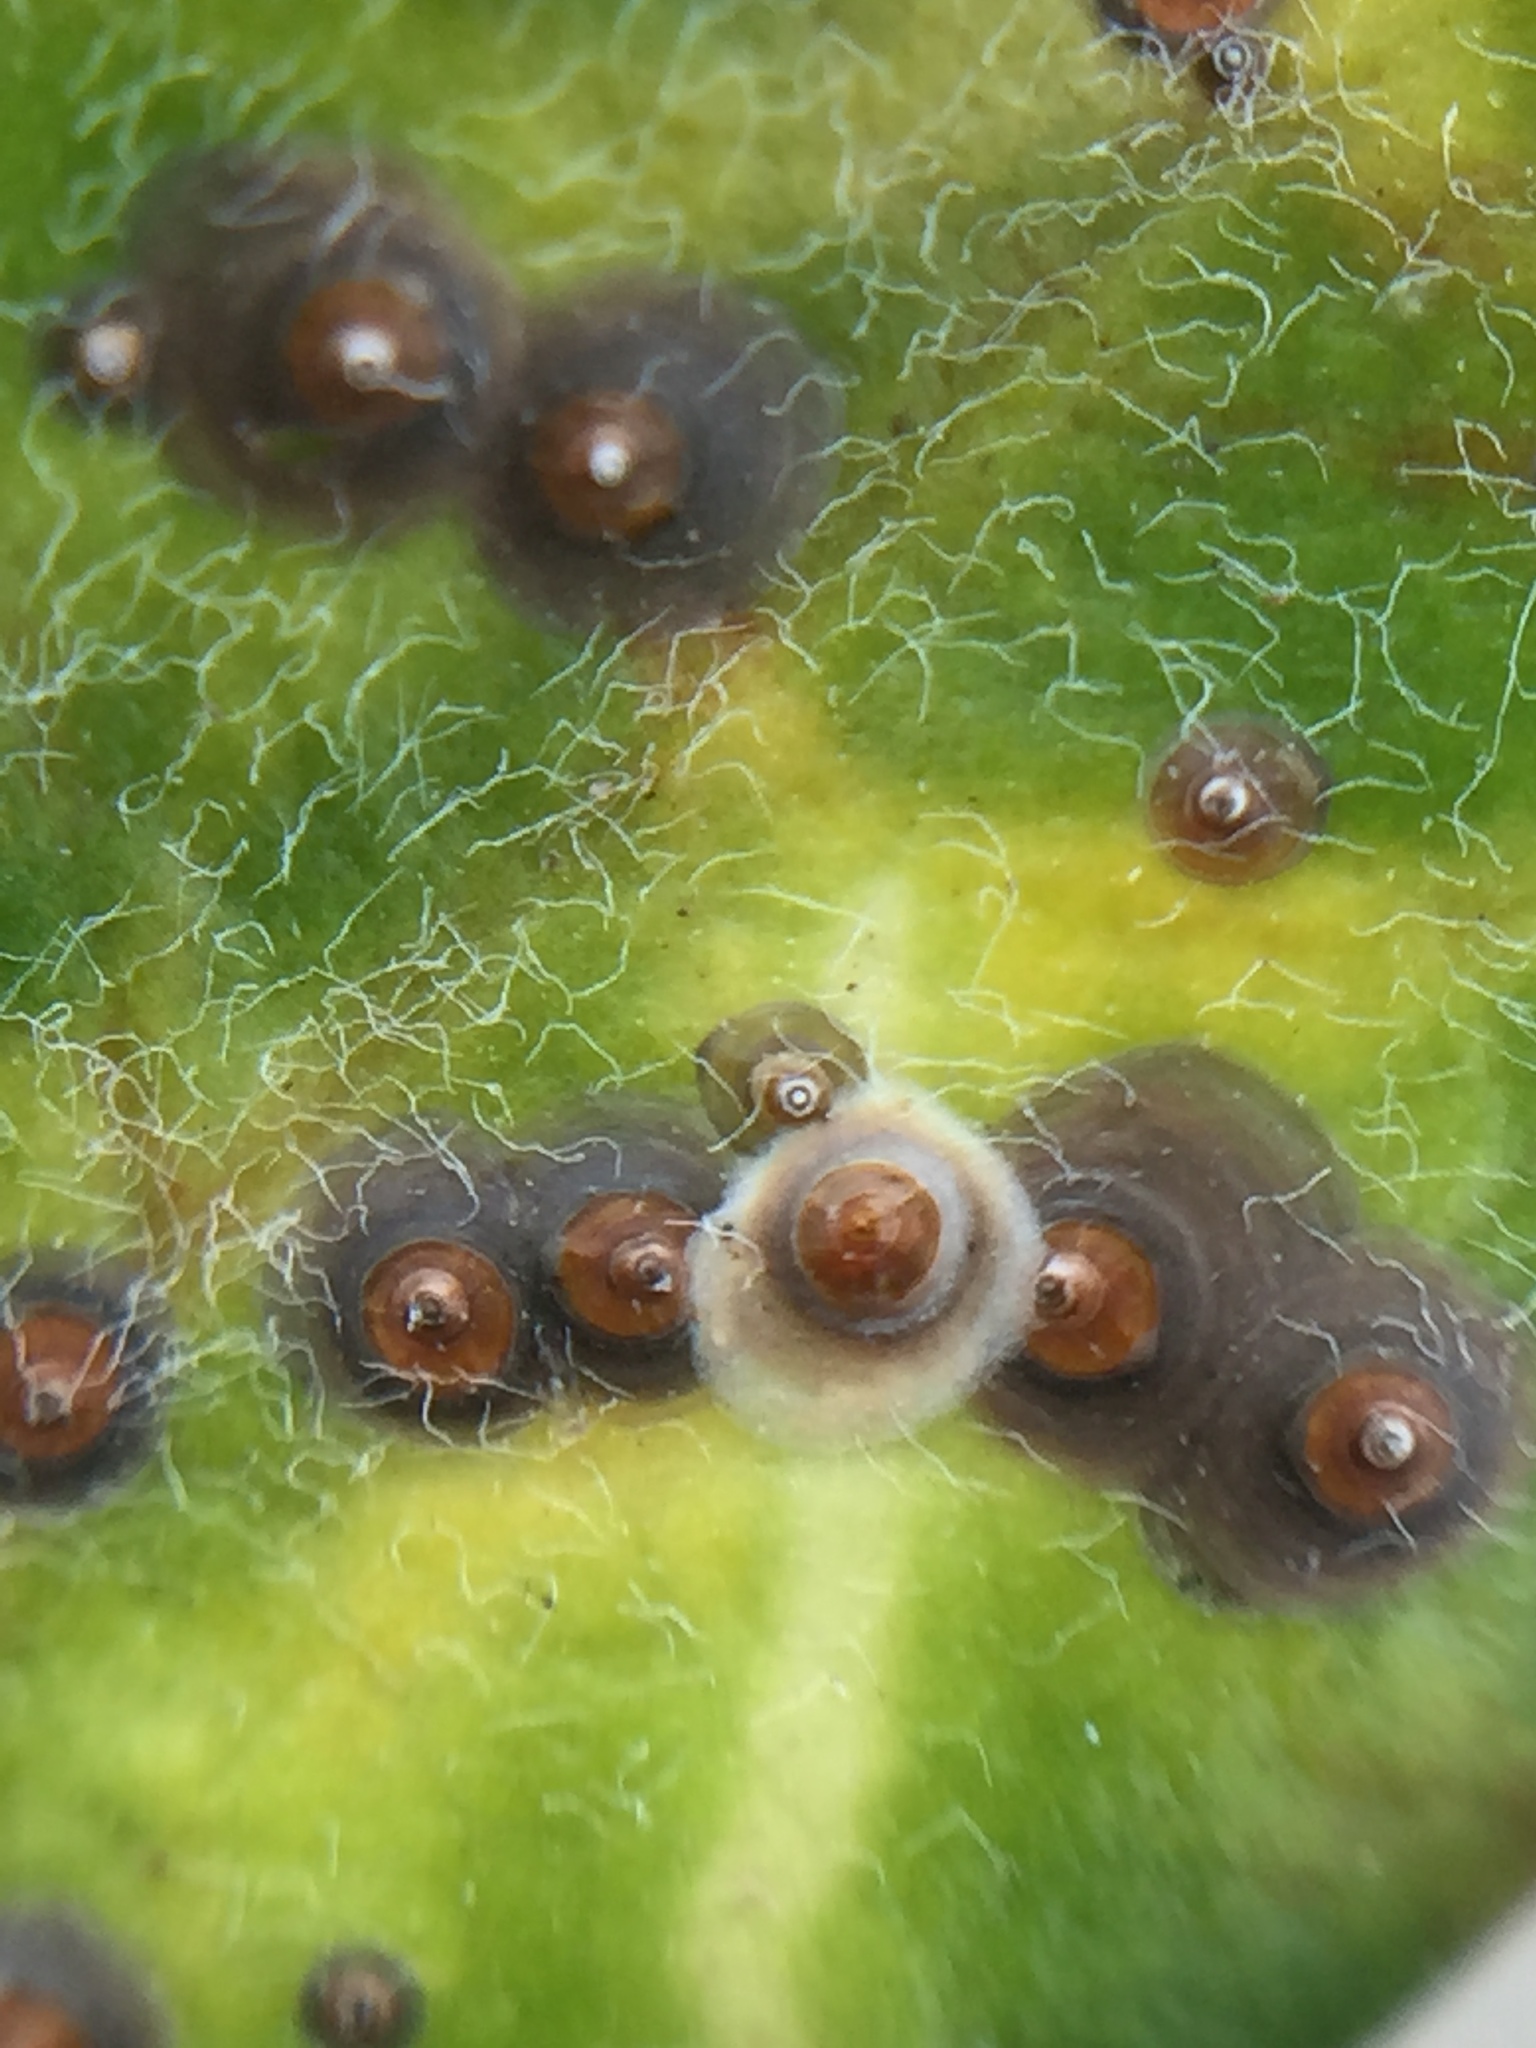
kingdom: Animalia
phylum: Arthropoda
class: Insecta
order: Hemiptera
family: Diaspididae
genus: Chrysomphalus
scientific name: Chrysomphalus pinnulifer
